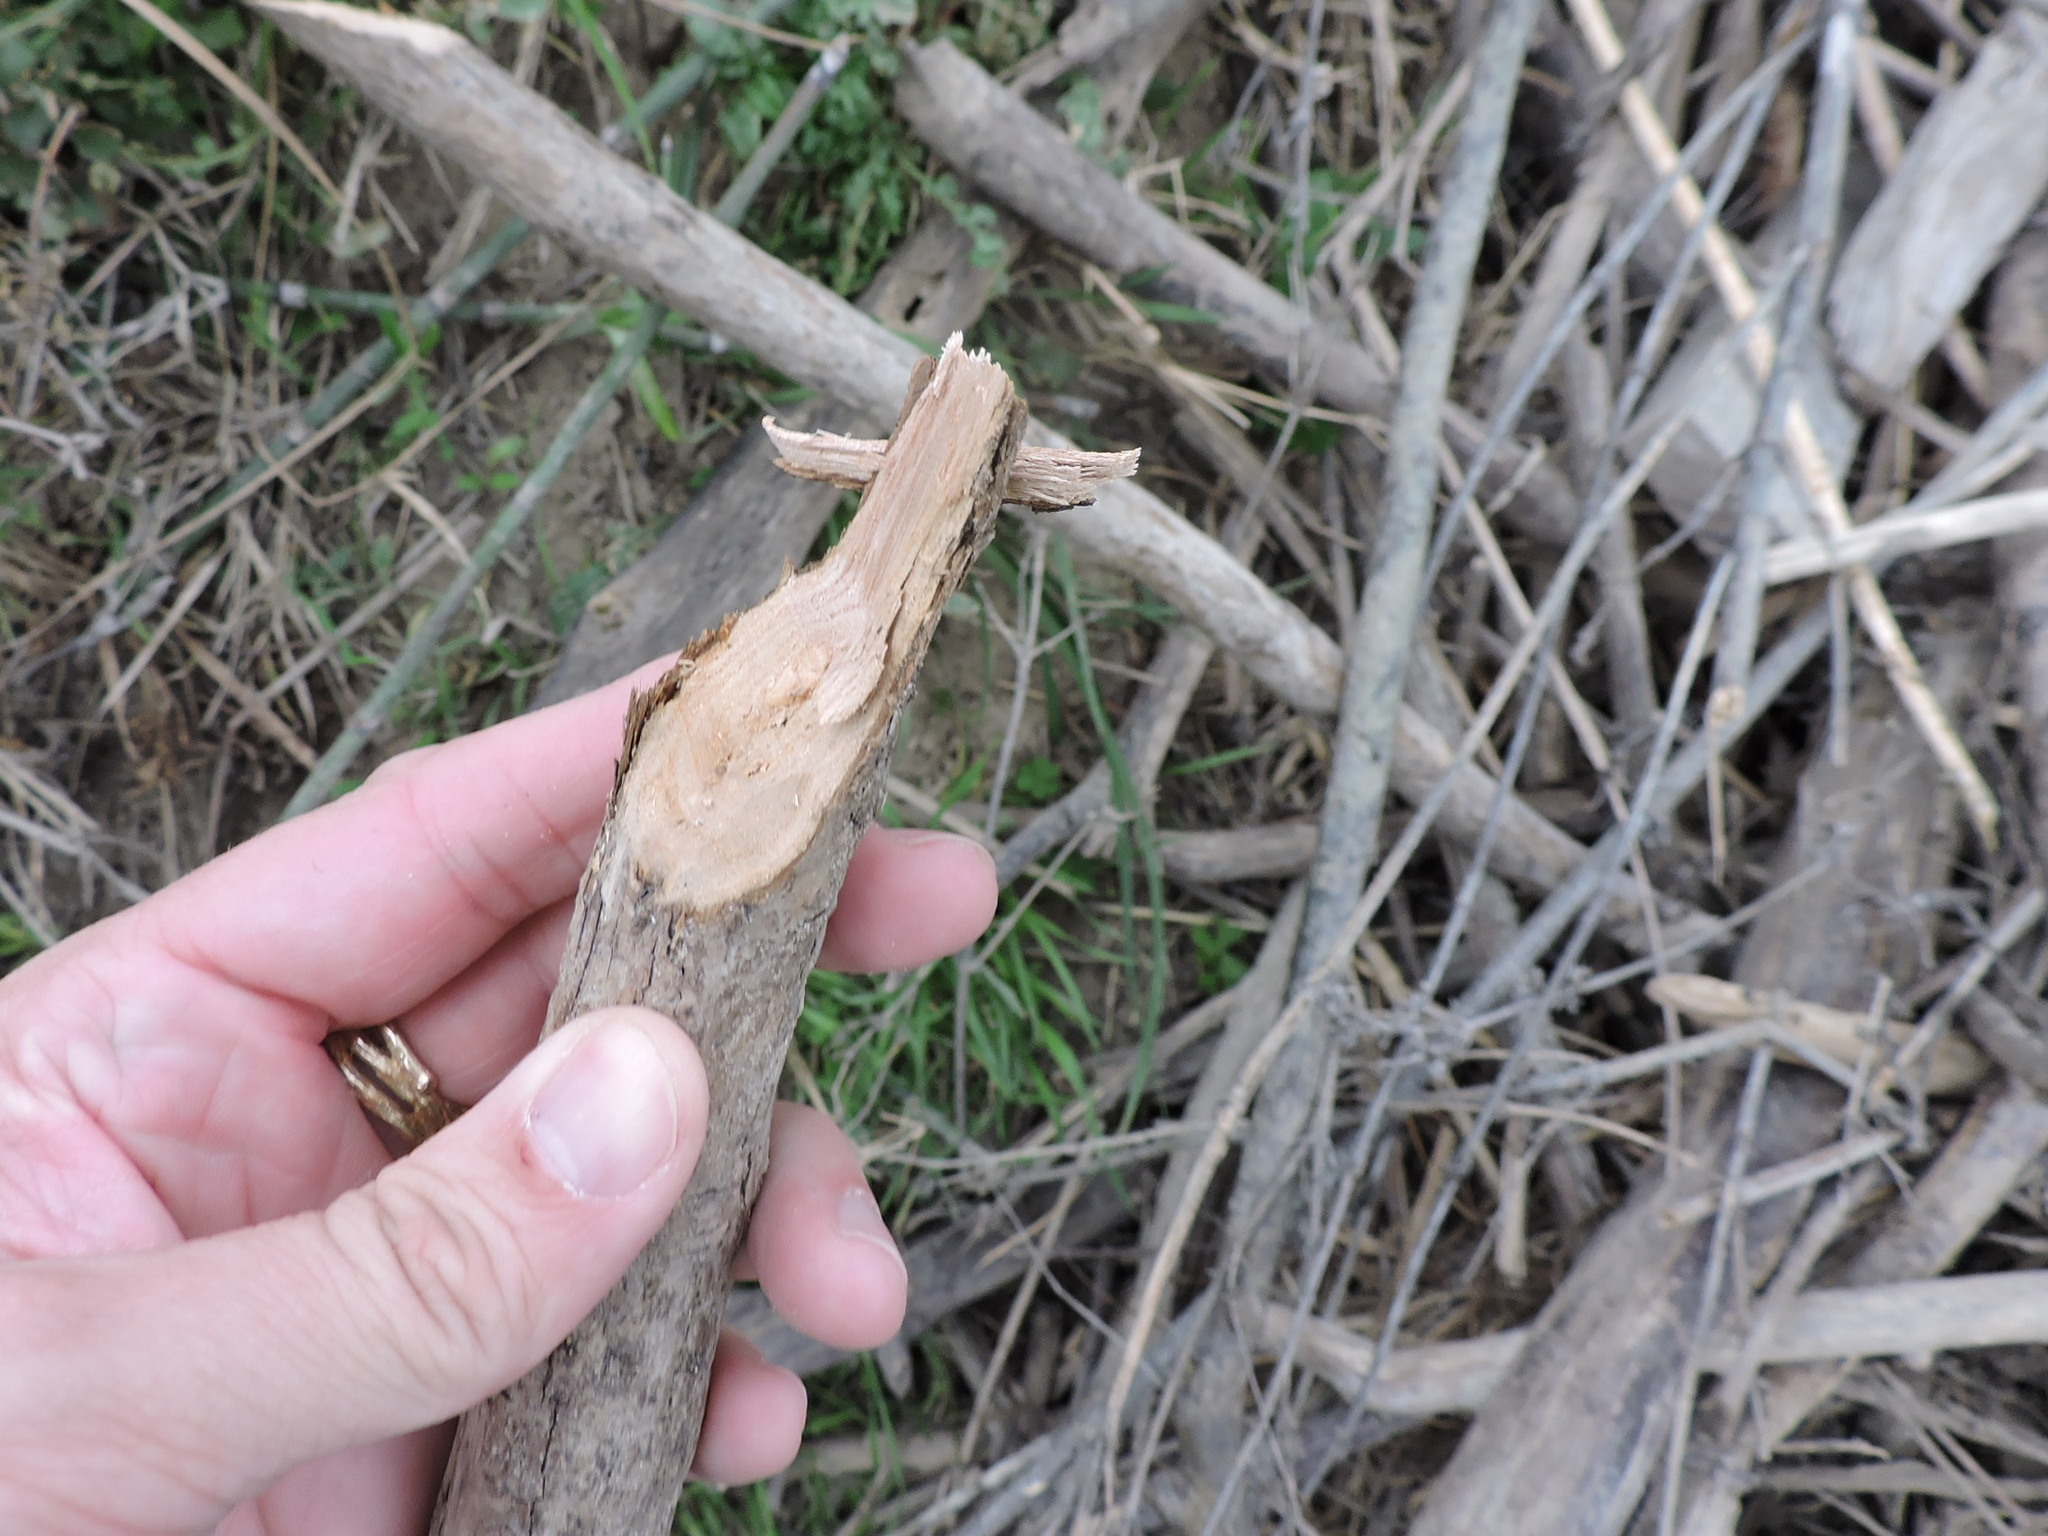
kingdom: Animalia
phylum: Chordata
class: Mammalia
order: Rodentia
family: Castoridae
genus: Castor
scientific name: Castor canadensis
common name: American beaver
